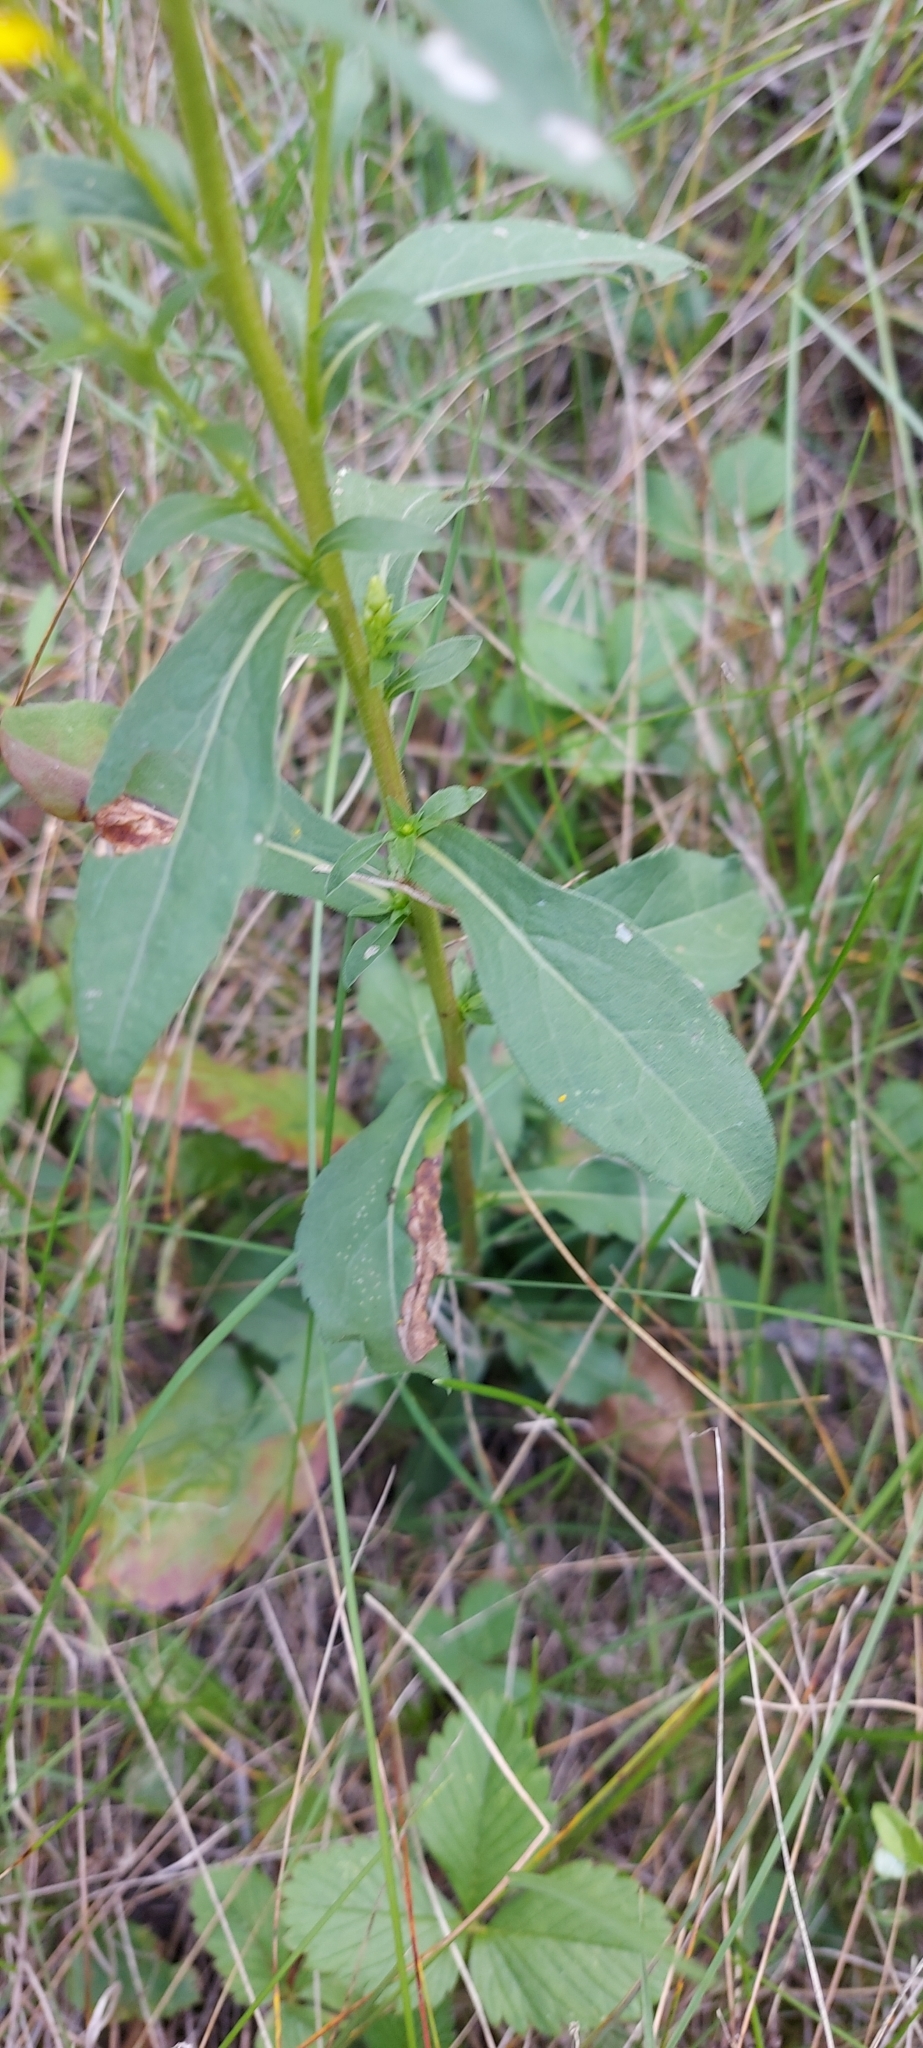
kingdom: Plantae
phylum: Tracheophyta
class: Magnoliopsida
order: Asterales
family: Asteraceae
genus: Solidago
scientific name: Solidago virgaurea
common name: Goldenrod
